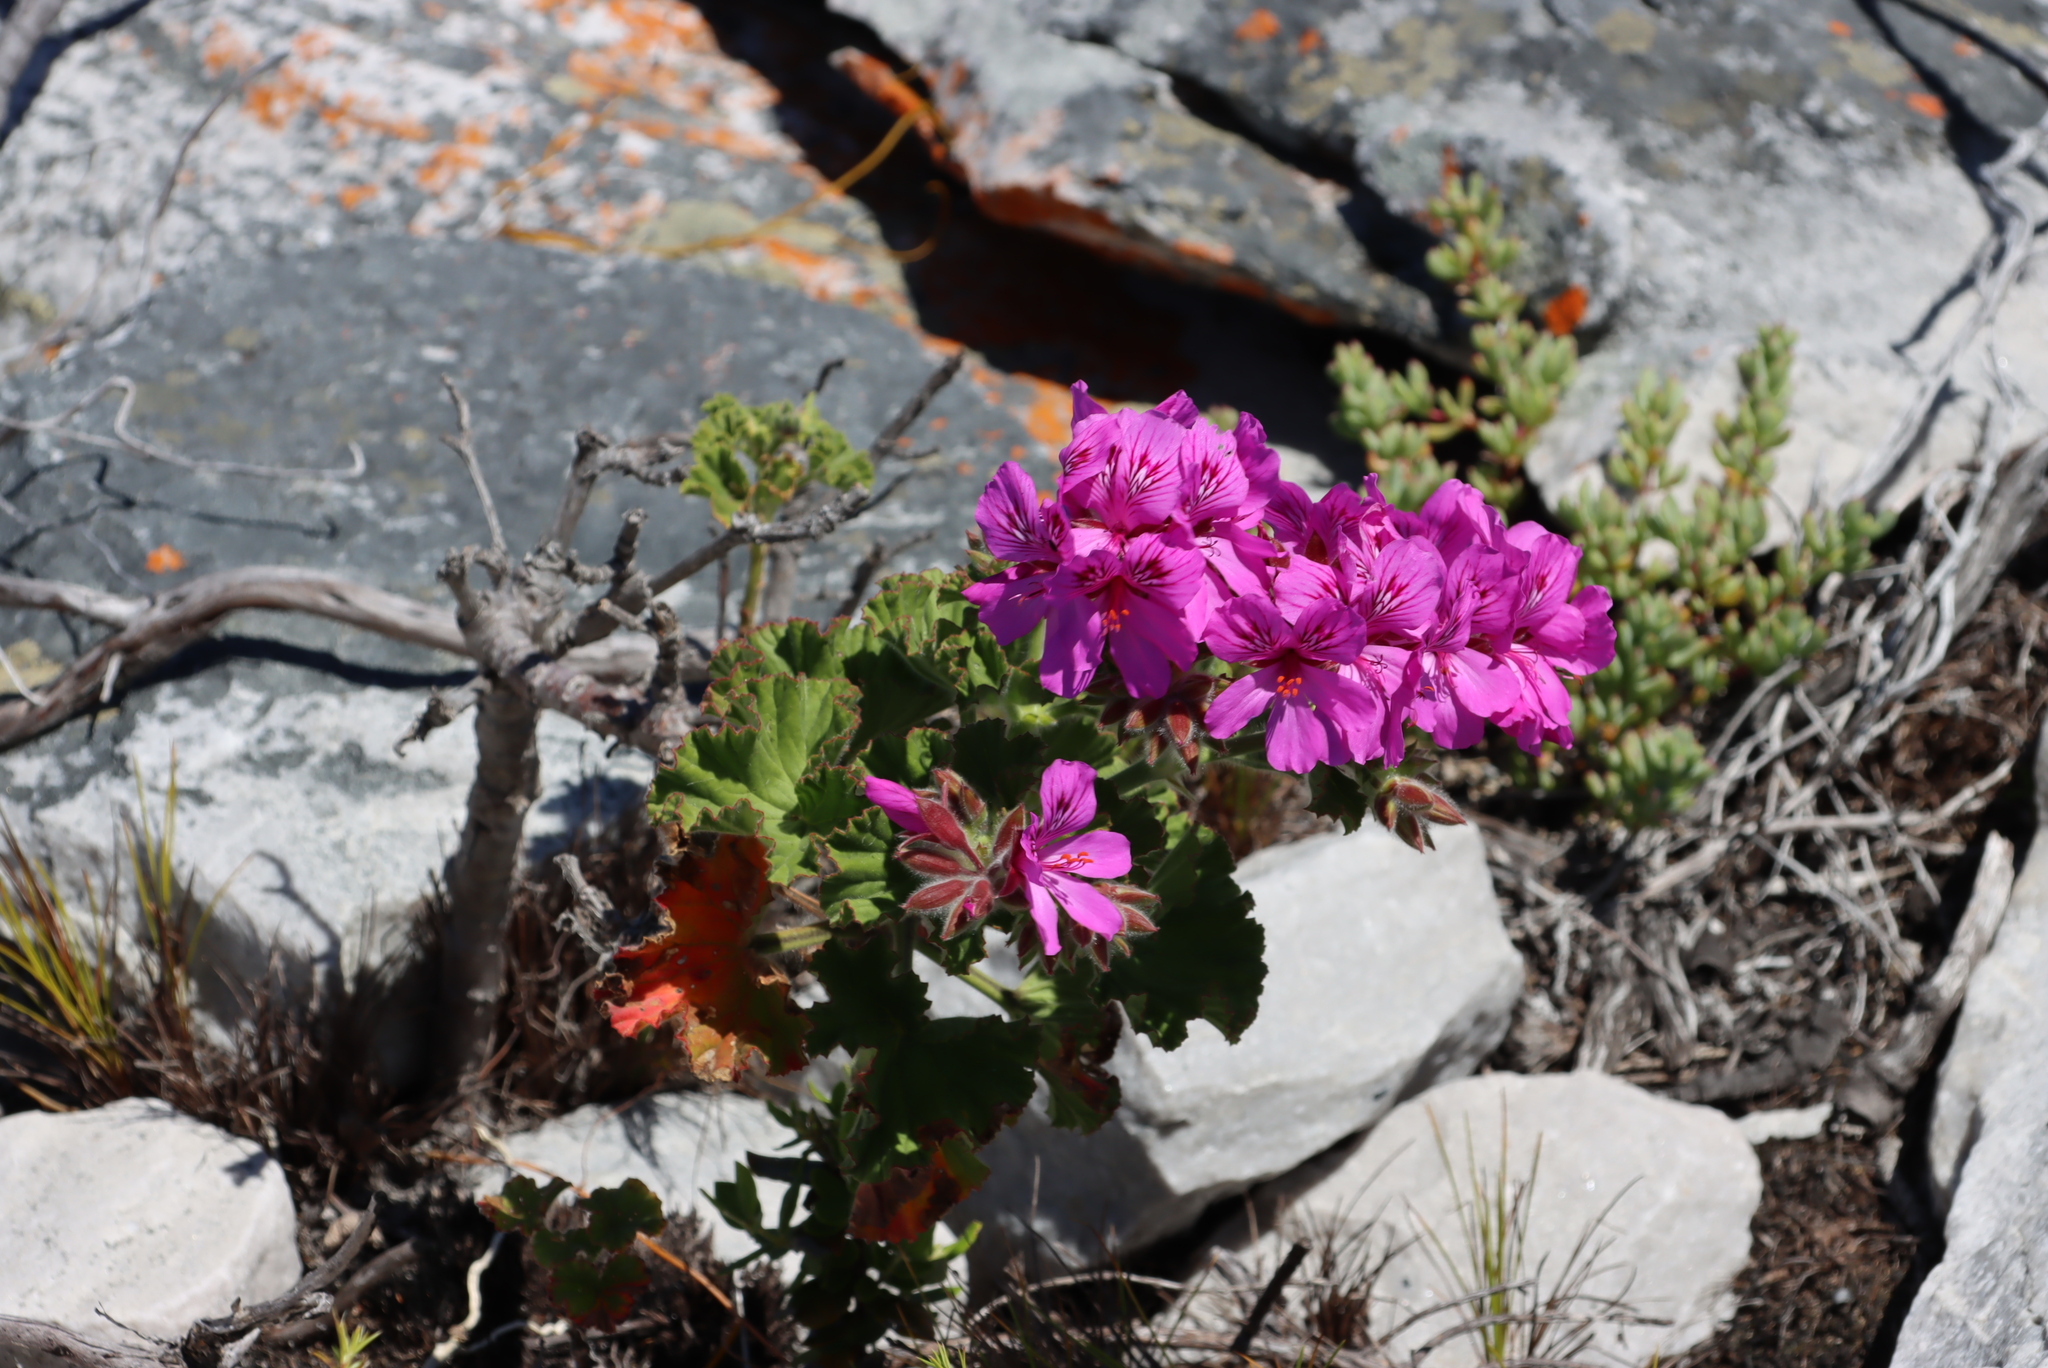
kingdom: Plantae
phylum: Tracheophyta
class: Magnoliopsida
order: Geraniales
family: Geraniaceae
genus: Pelargonium
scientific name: Pelargonium cucullatum
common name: Tree pelargonium
